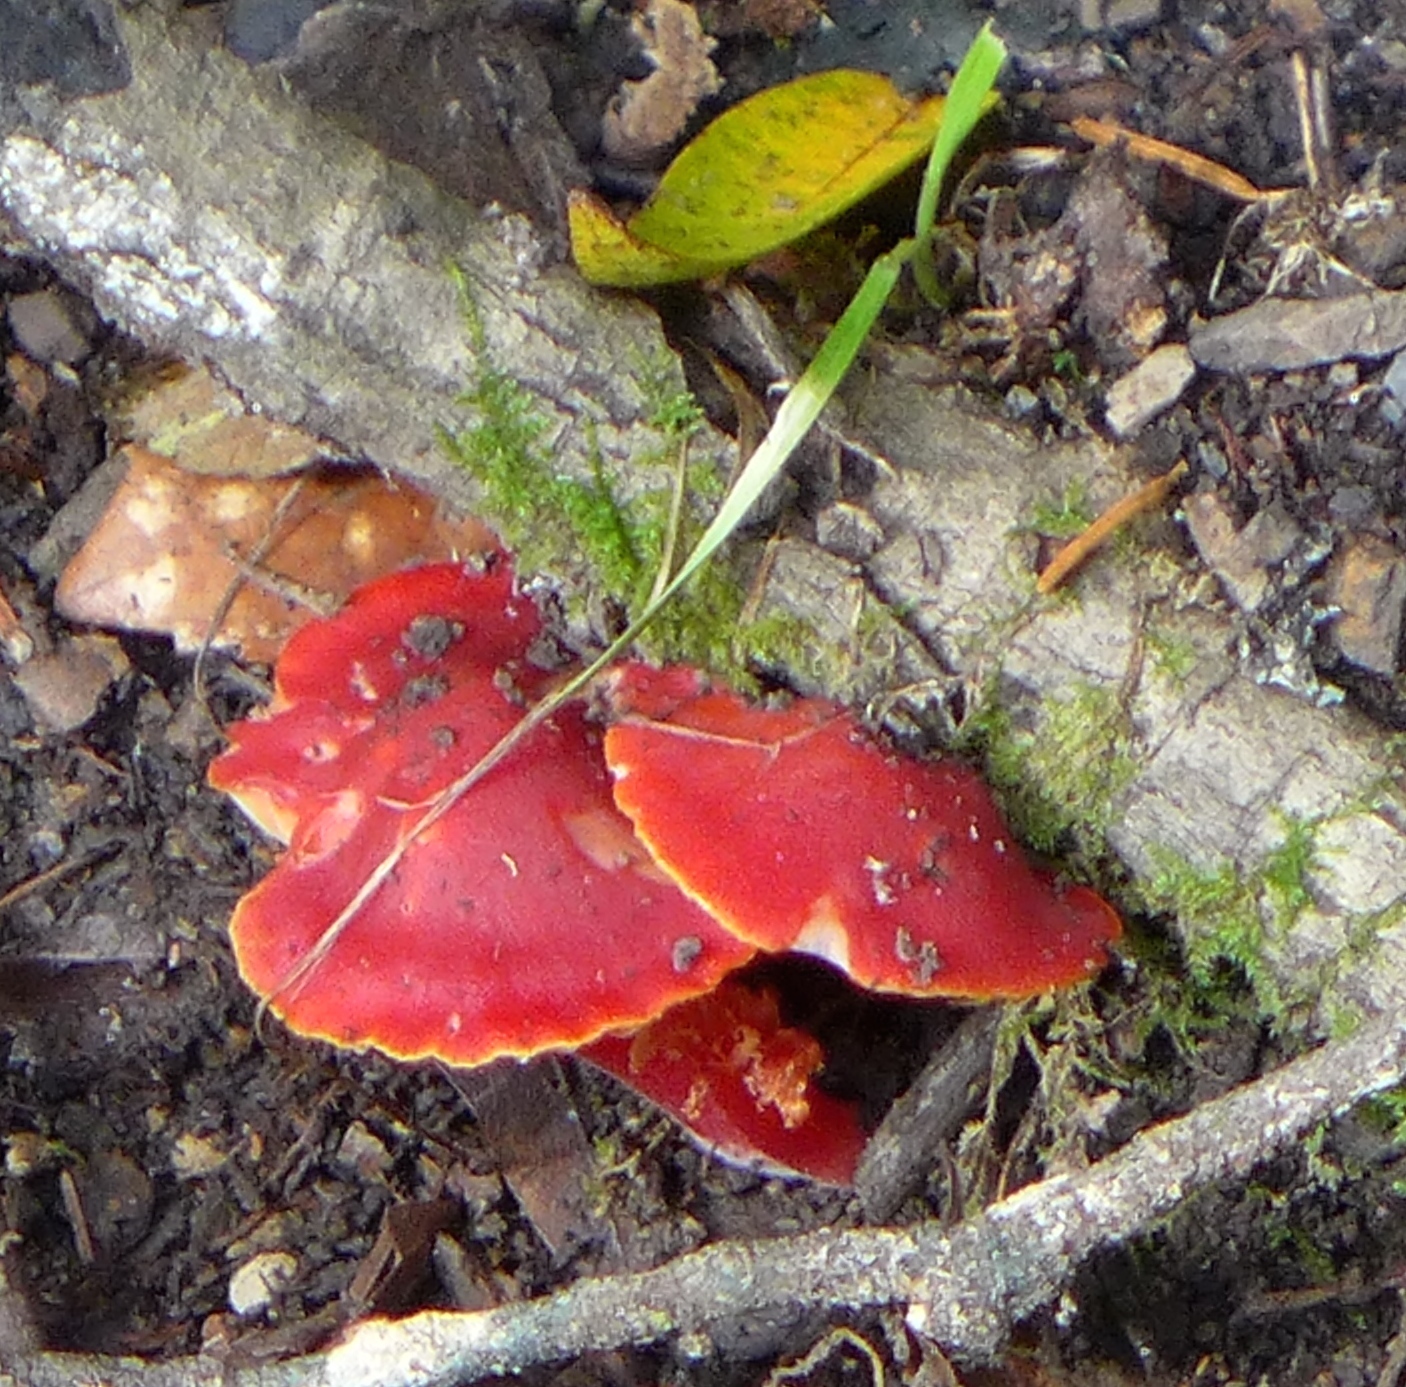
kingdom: Fungi
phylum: Basidiomycota
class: Agaricomycetes
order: Agaricales
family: Hygrophoraceae
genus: Hygrocybe
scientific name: Hygrocybe coccinea
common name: Scarlet hood
